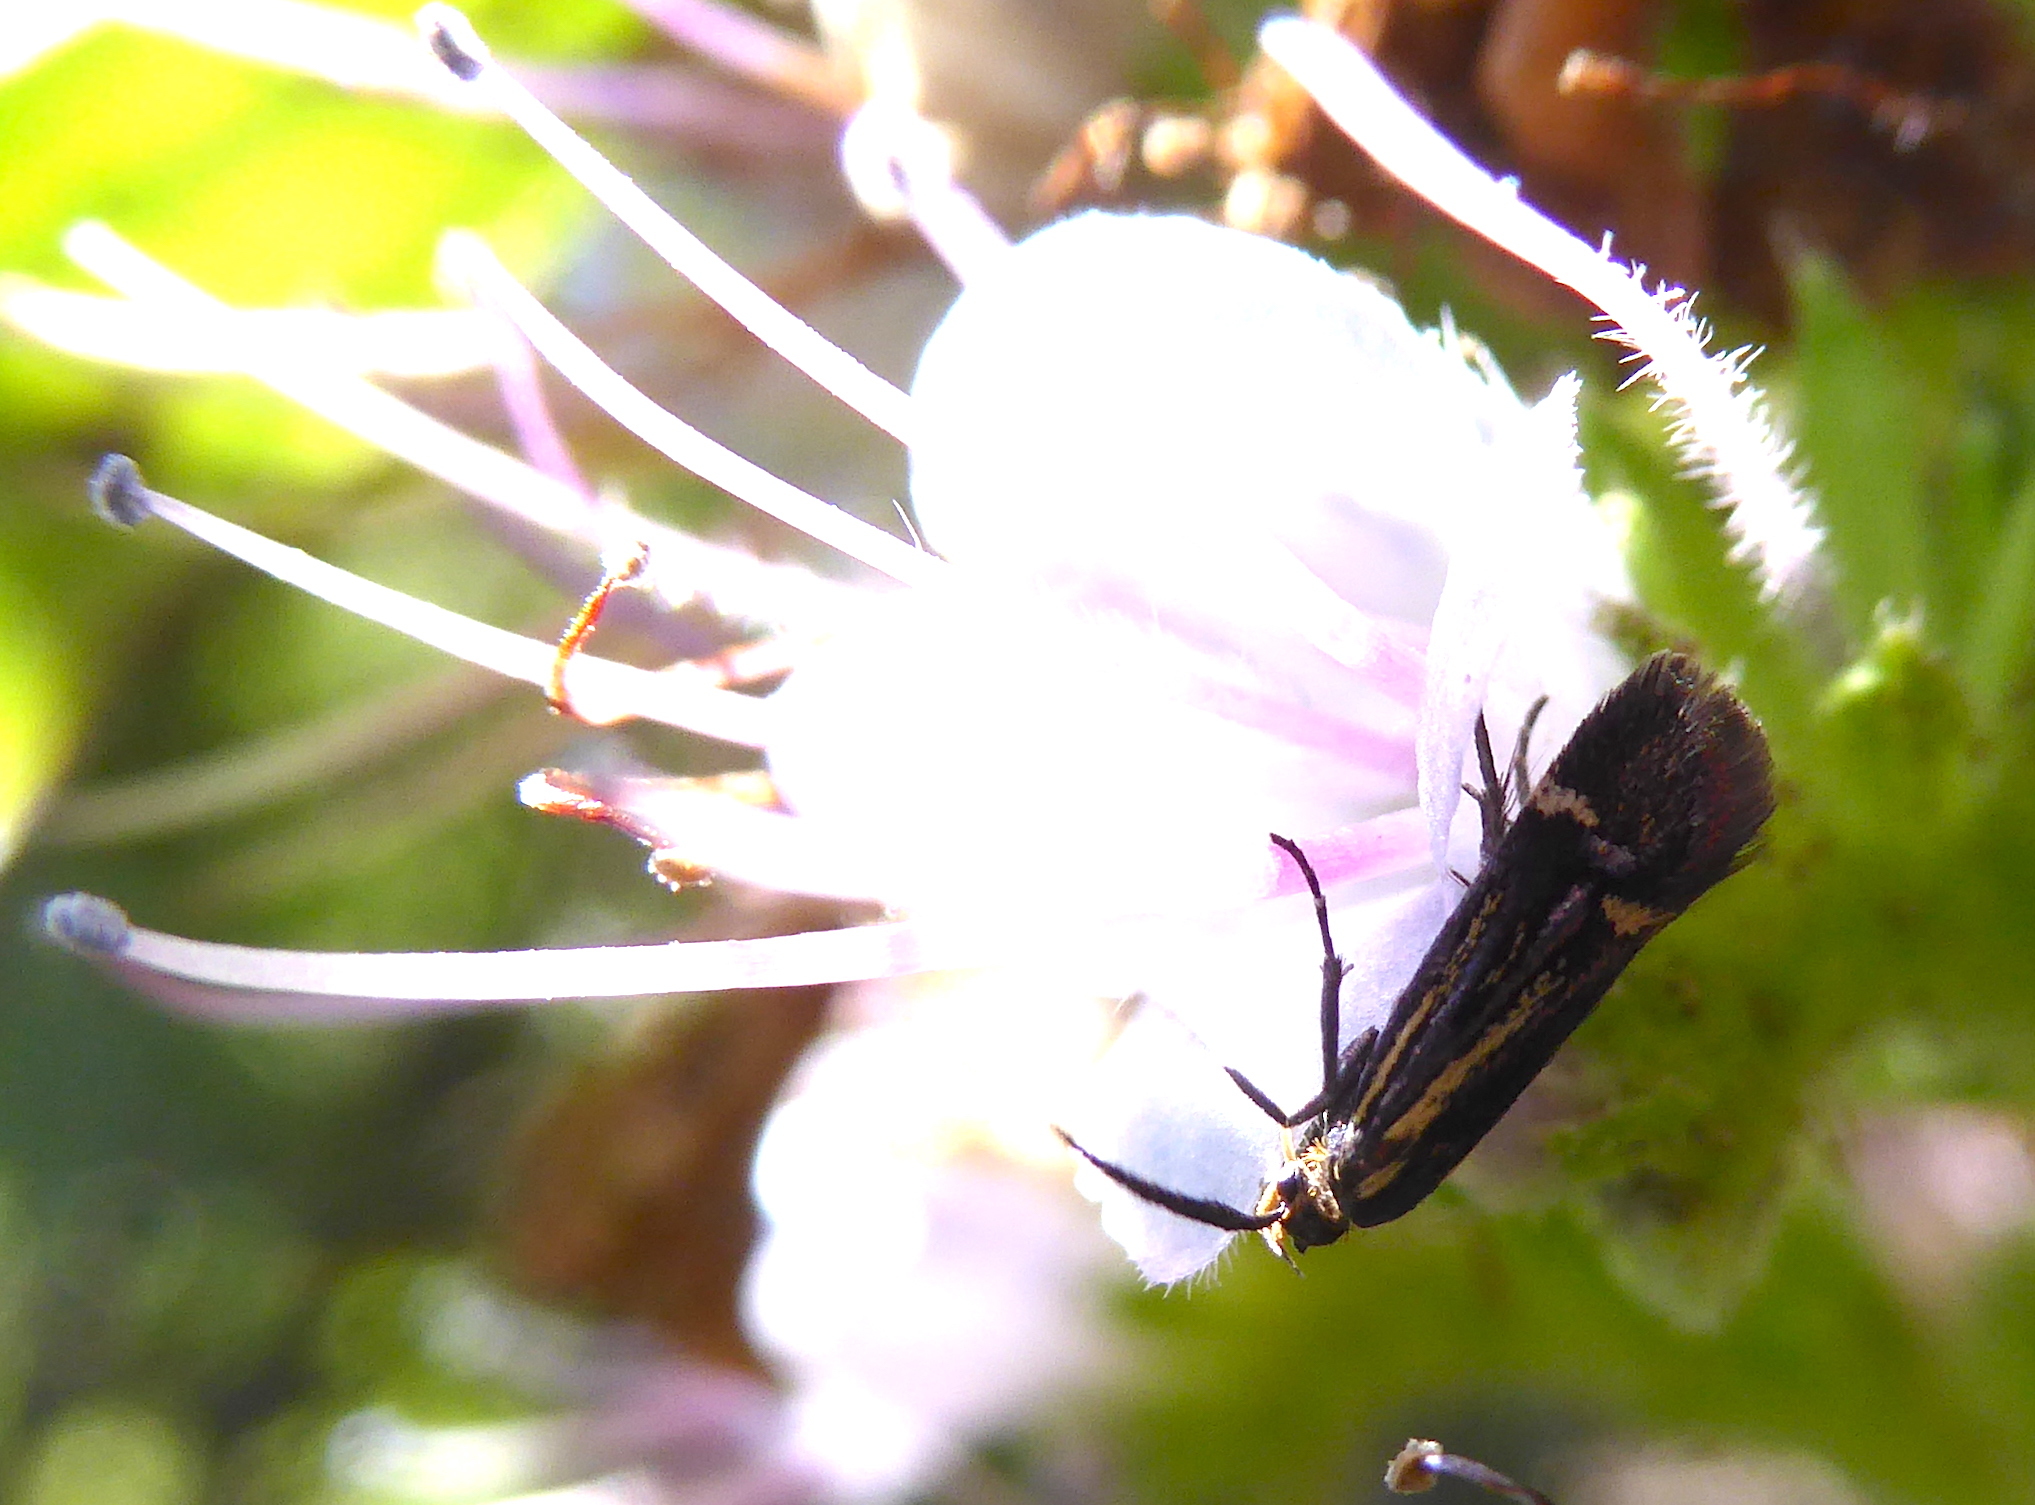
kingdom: Animalia
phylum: Arthropoda
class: Insecta
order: Lepidoptera
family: Oecophoridae
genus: Dafa
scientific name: Dafa Esperia sulphurella
